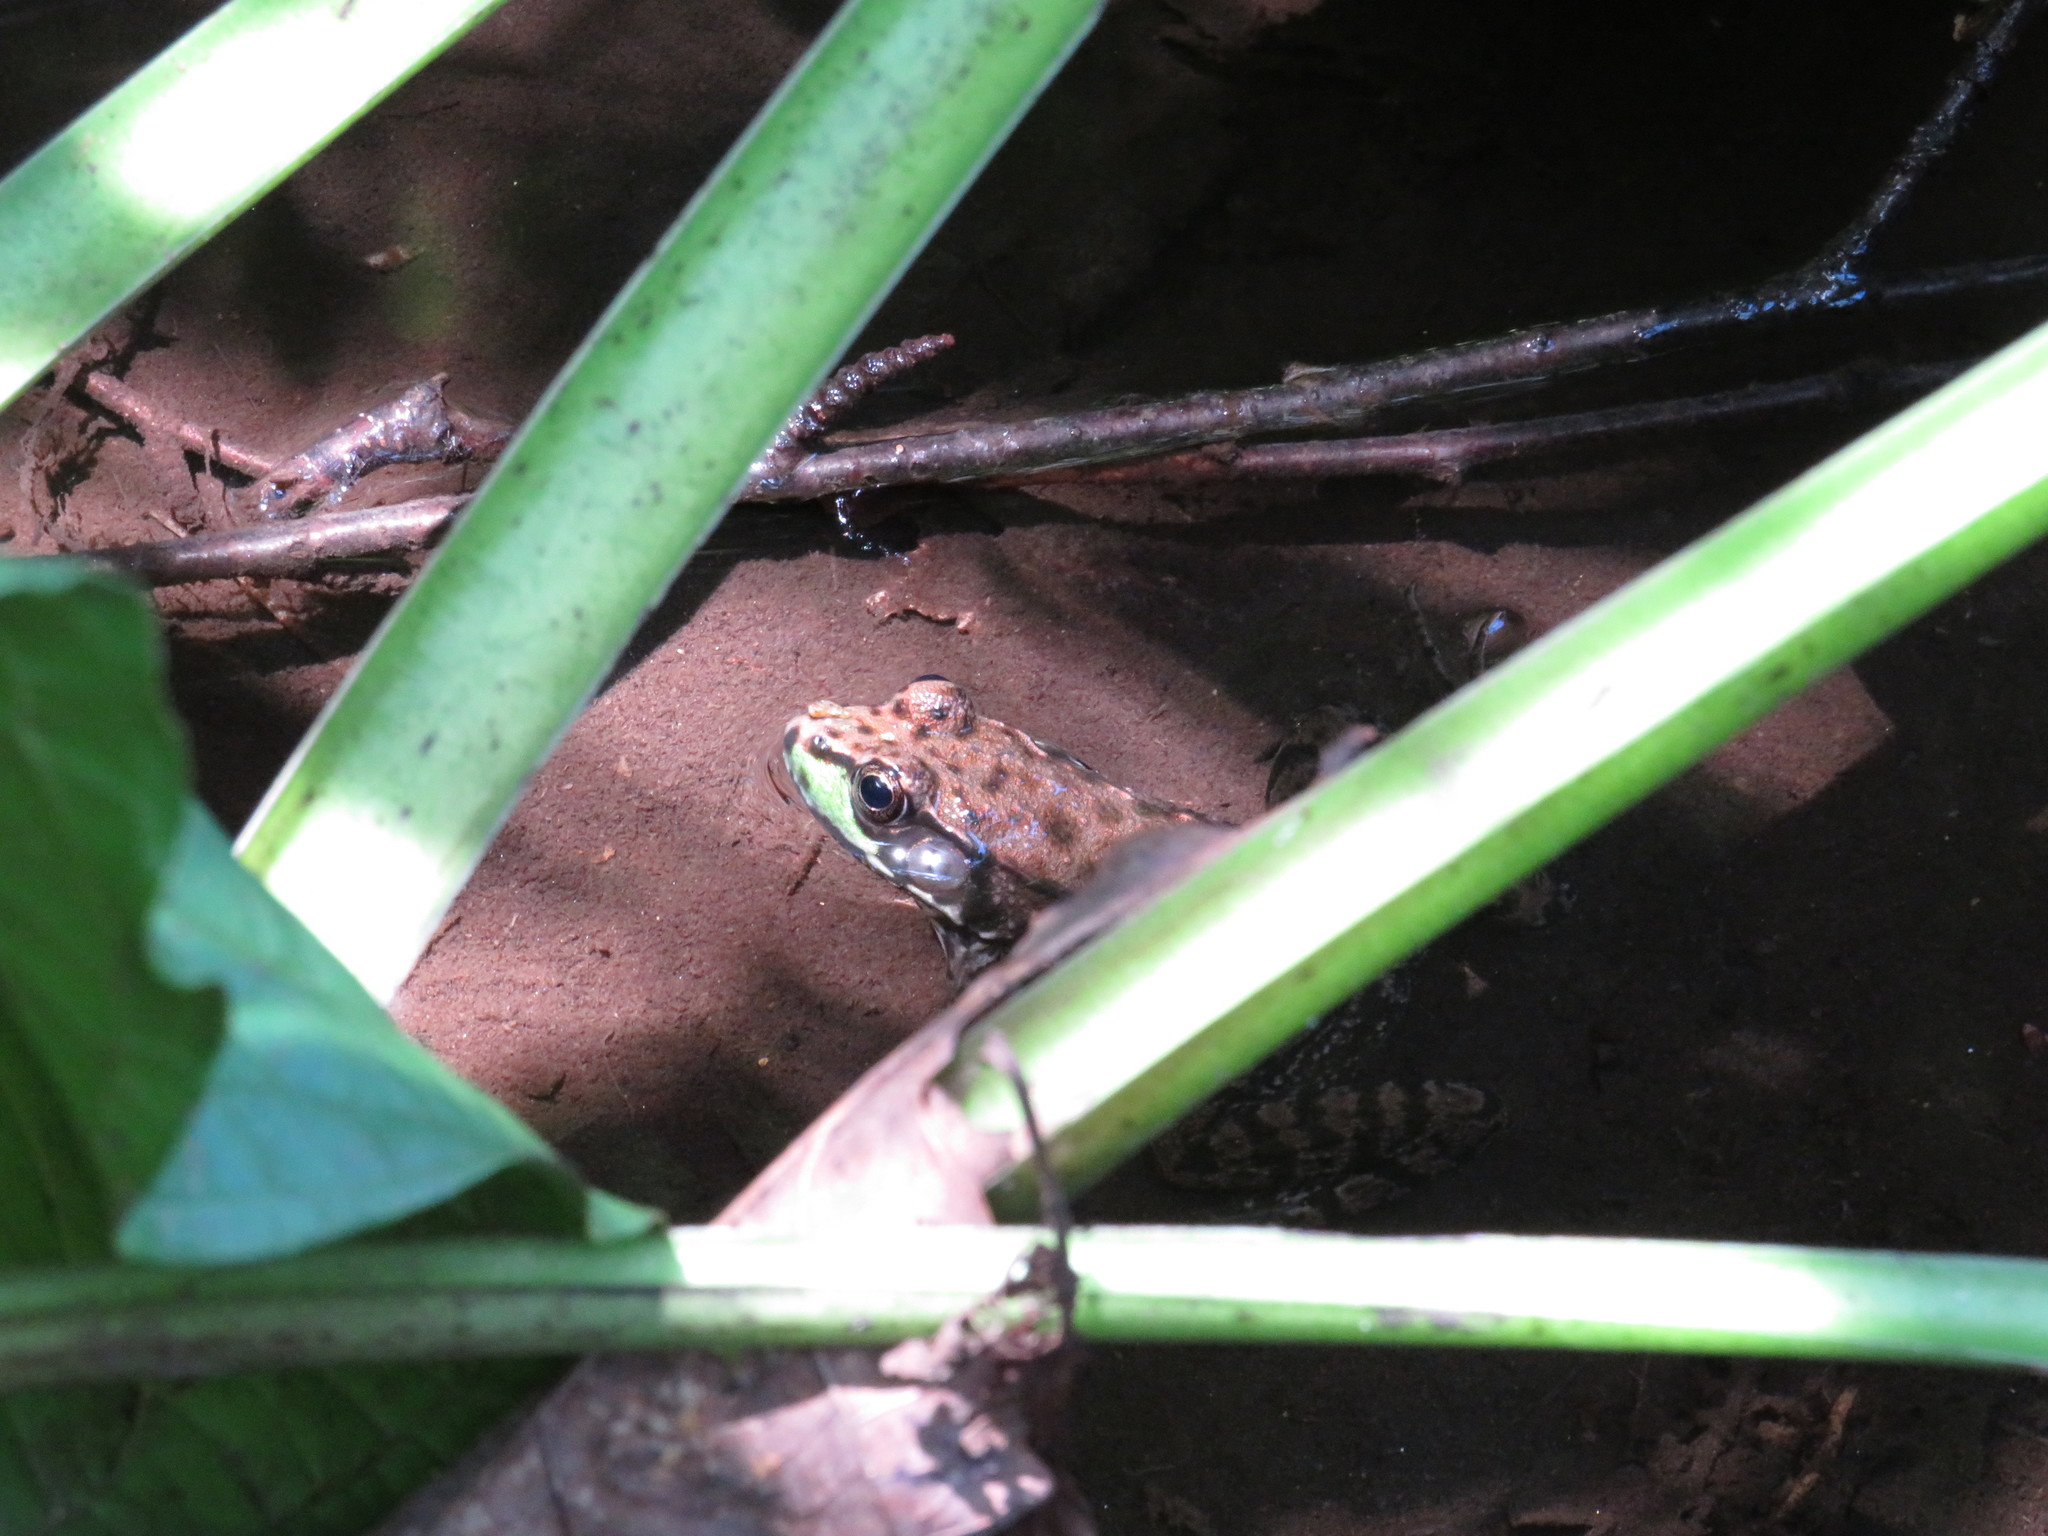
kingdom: Animalia
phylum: Chordata
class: Amphibia
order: Anura
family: Ranidae
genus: Lithobates
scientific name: Lithobates clamitans
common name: Green frog
